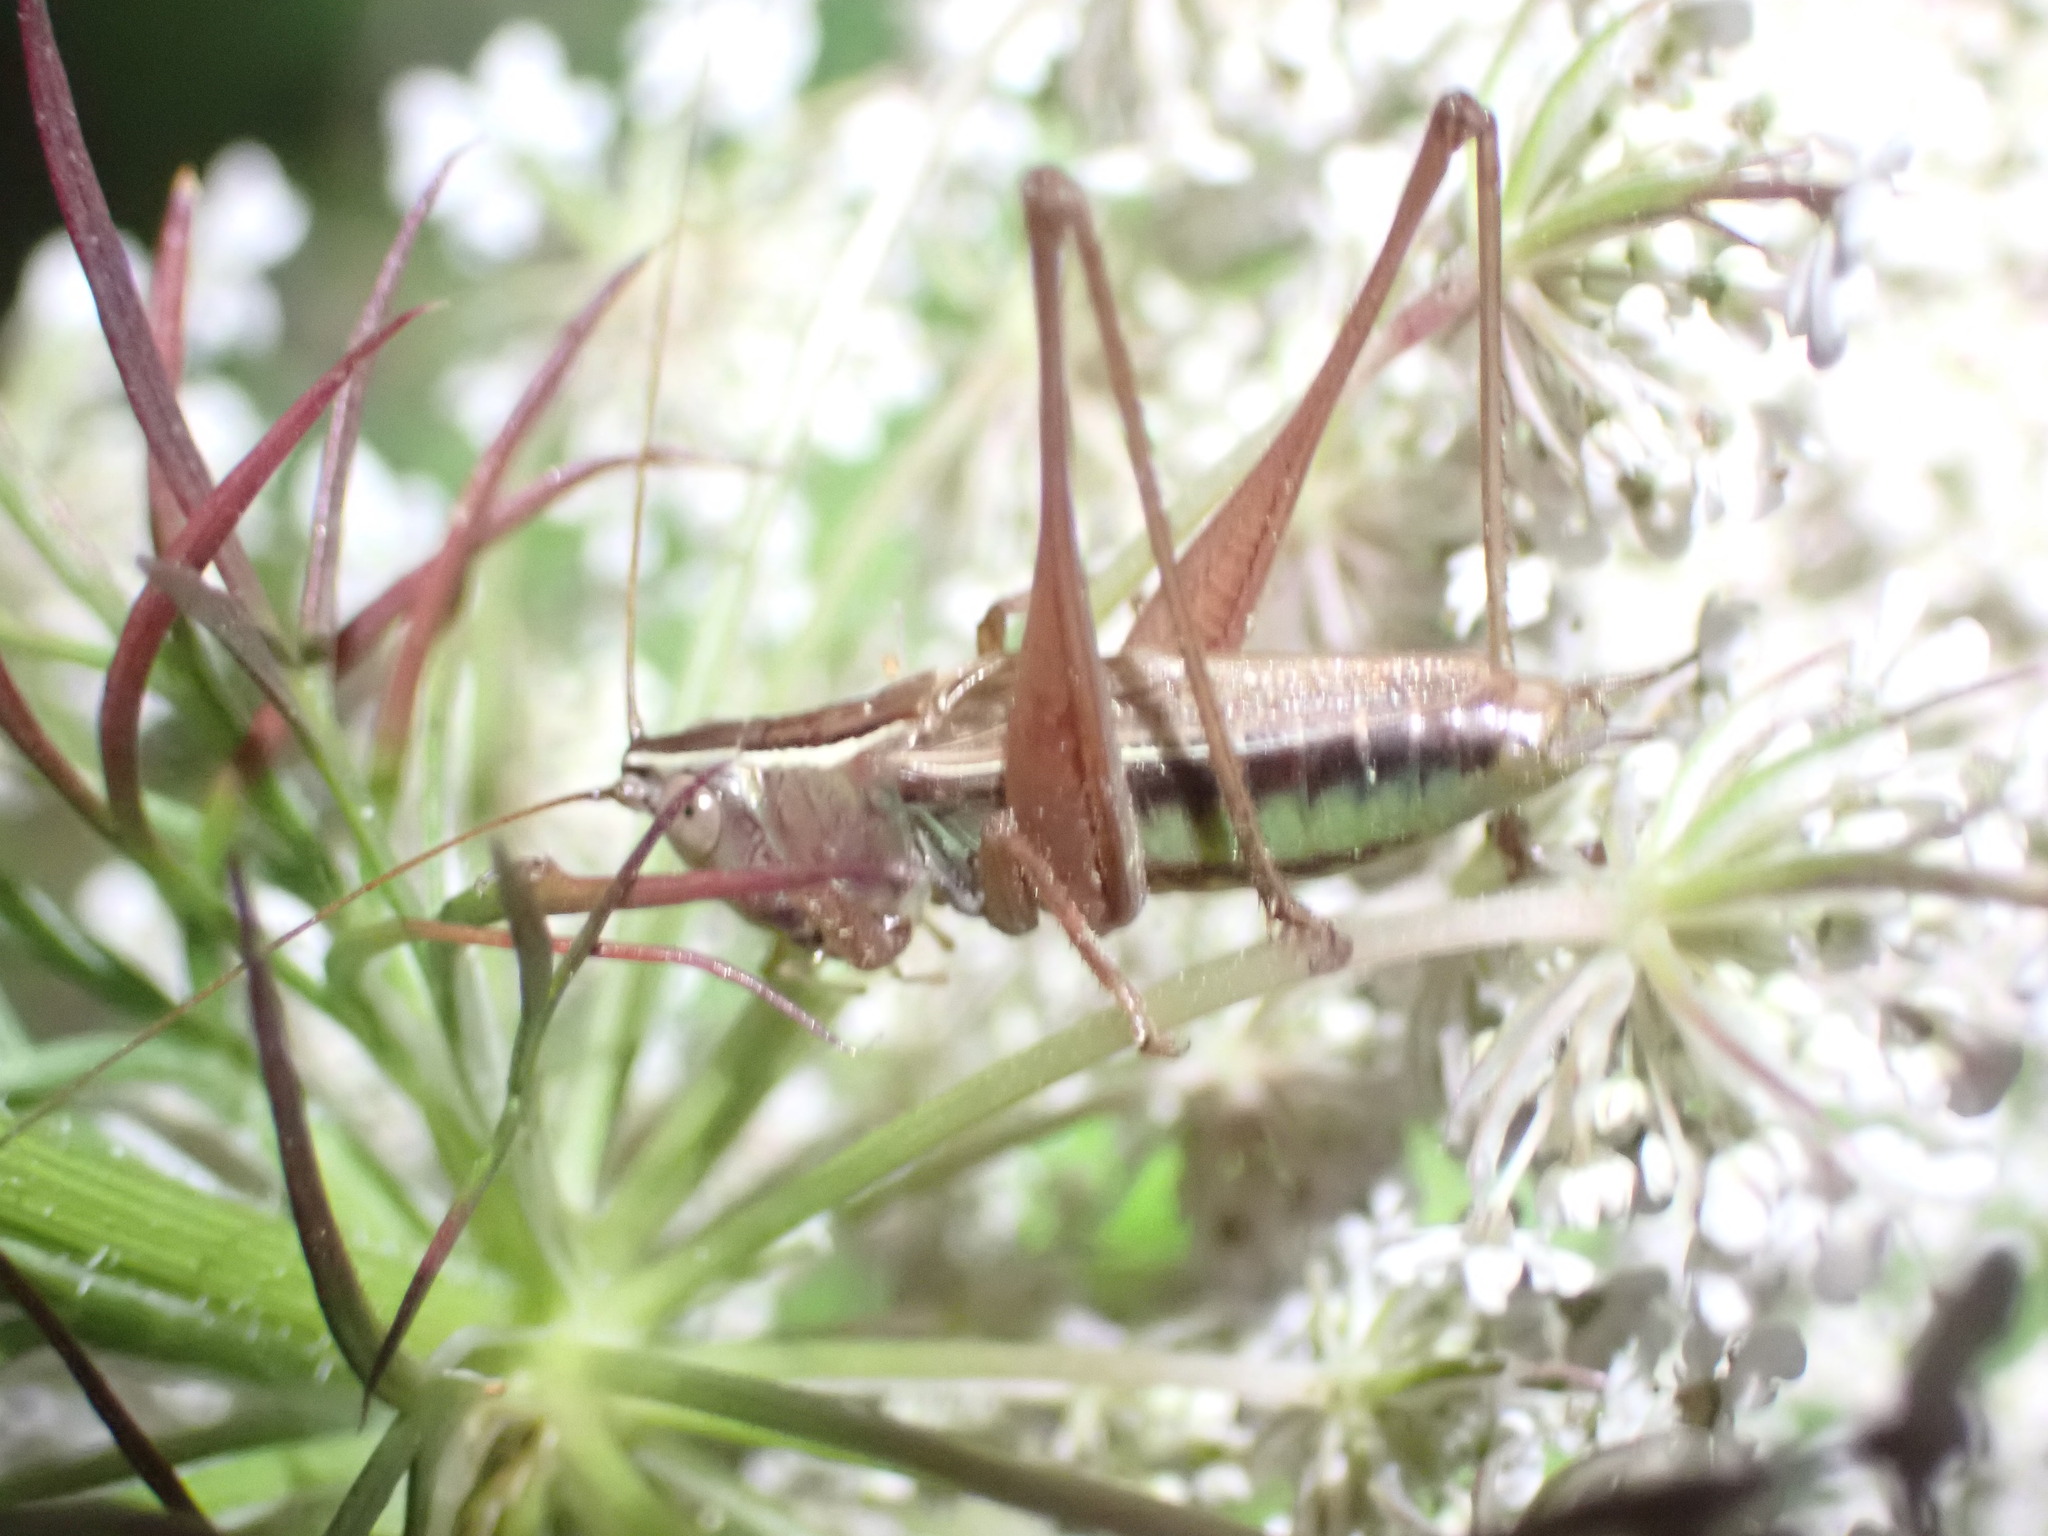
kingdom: Animalia
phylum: Arthropoda
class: Insecta
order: Orthoptera
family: Tettigoniidae
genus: Conocephalus
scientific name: Conocephalus albescens
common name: Whitish meadow katydid
